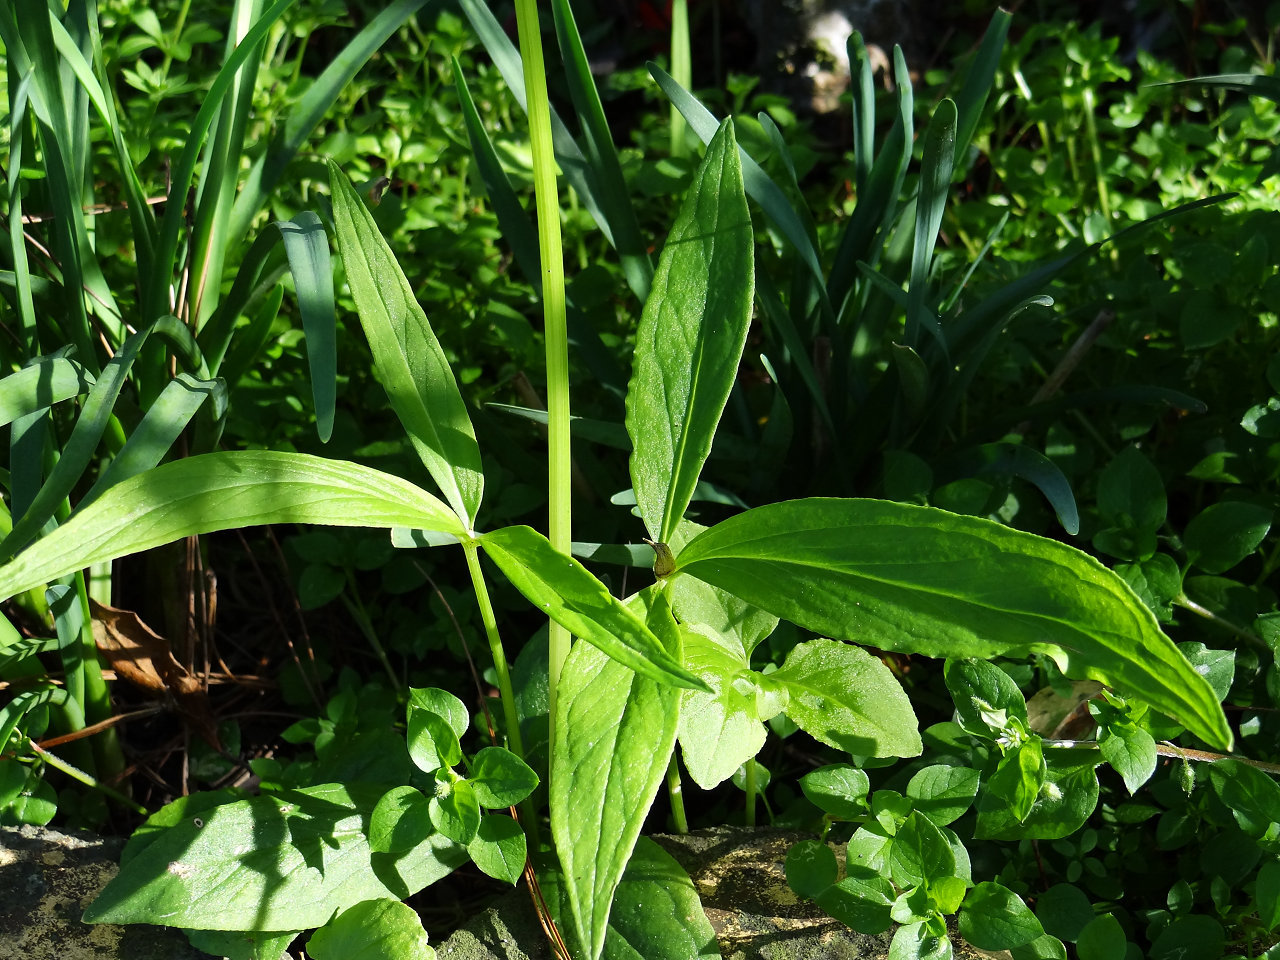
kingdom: Plantae
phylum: Tracheophyta
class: Liliopsida
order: Alismatales
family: Araceae
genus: Pinellia
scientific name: Pinellia ternata
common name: Pinellia
